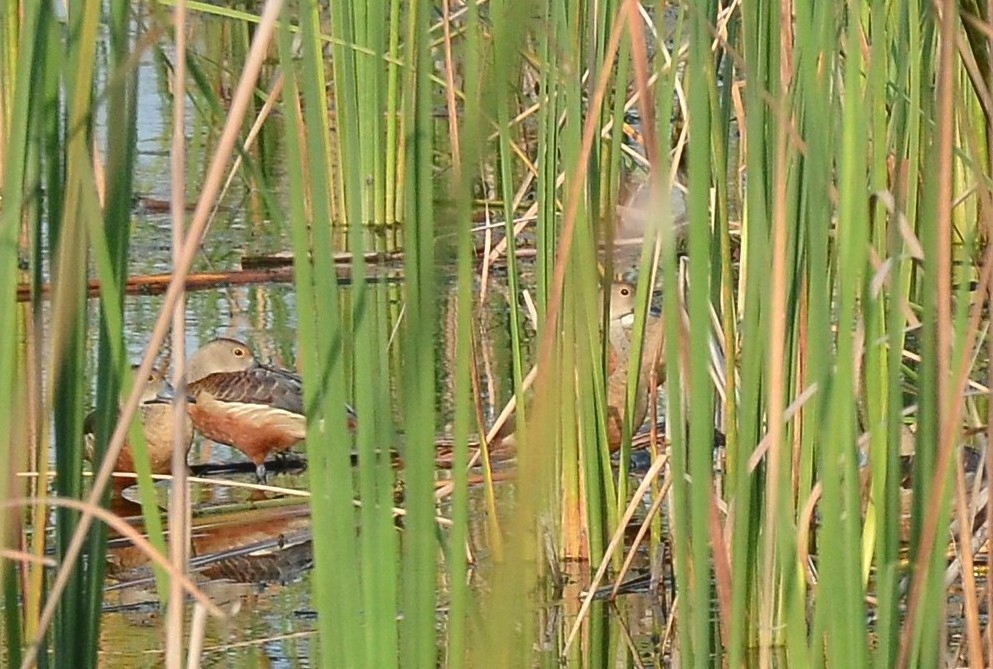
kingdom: Animalia
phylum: Chordata
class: Aves
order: Anseriformes
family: Anatidae
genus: Dendrocygna
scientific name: Dendrocygna javanica
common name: Lesser whistling-duck
